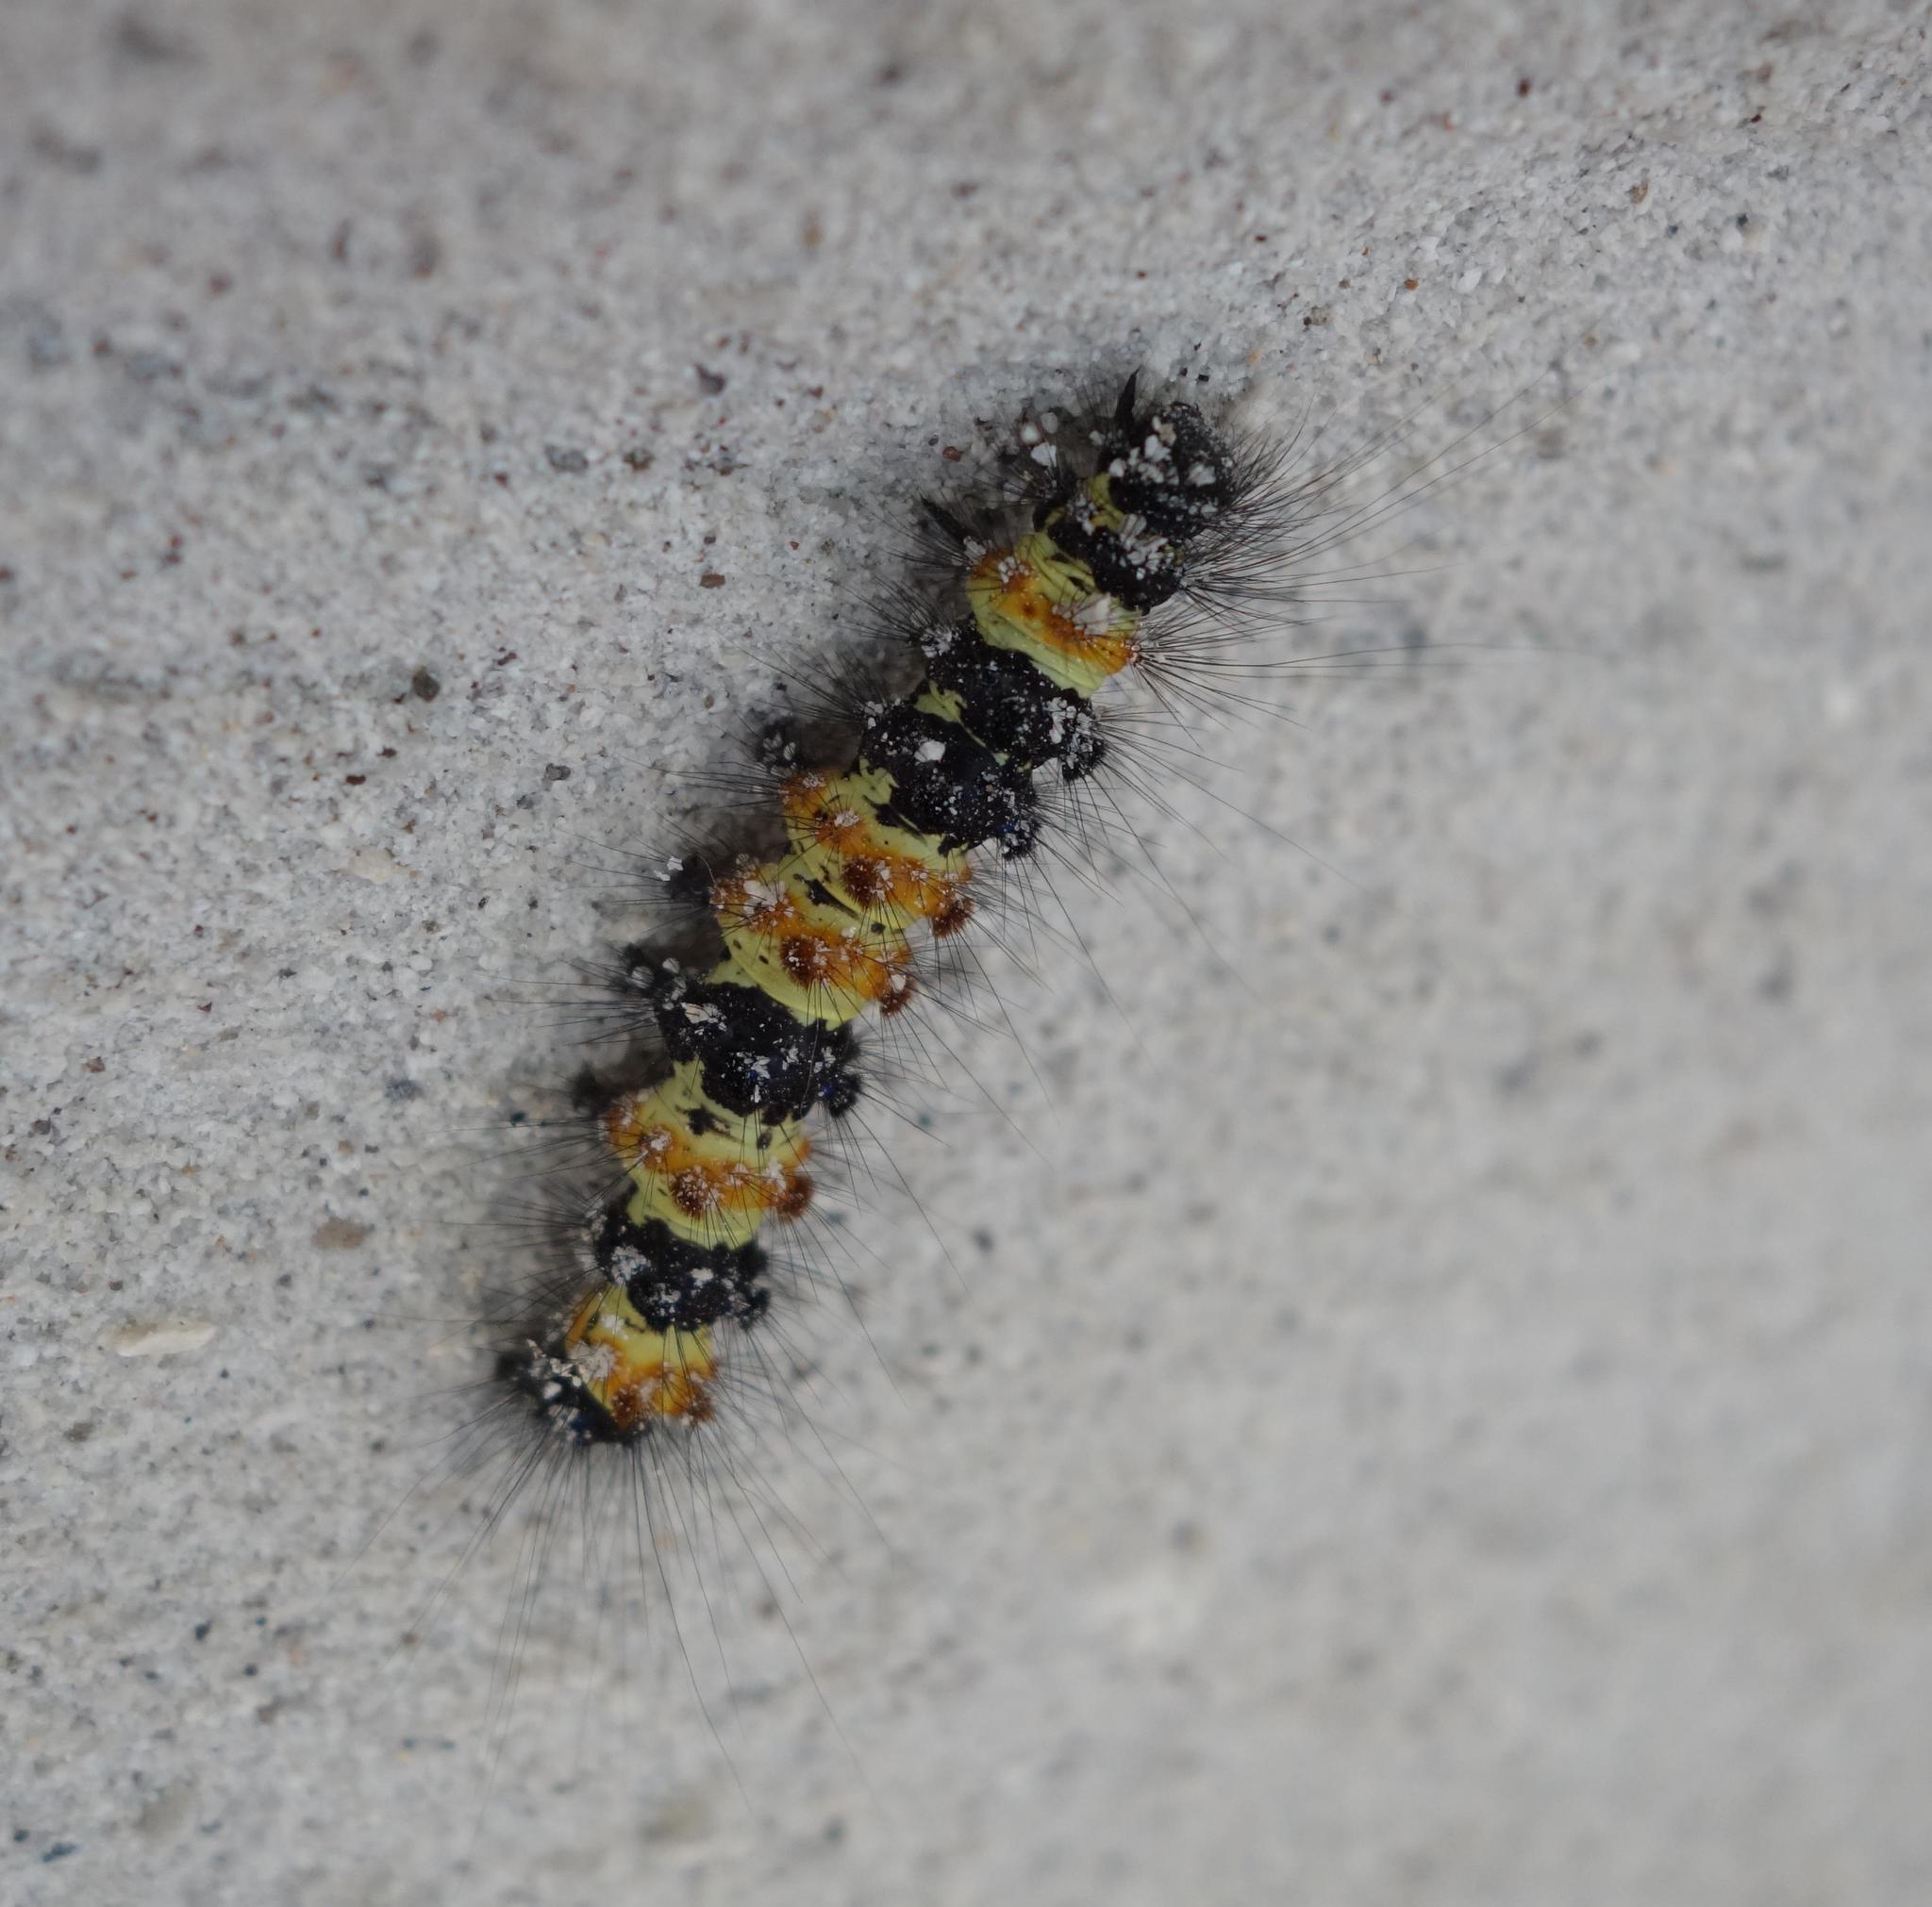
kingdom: Animalia
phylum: Arthropoda
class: Insecta
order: Lepidoptera
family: Erebidae
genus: Dysschema
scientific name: Dysschema howardi
